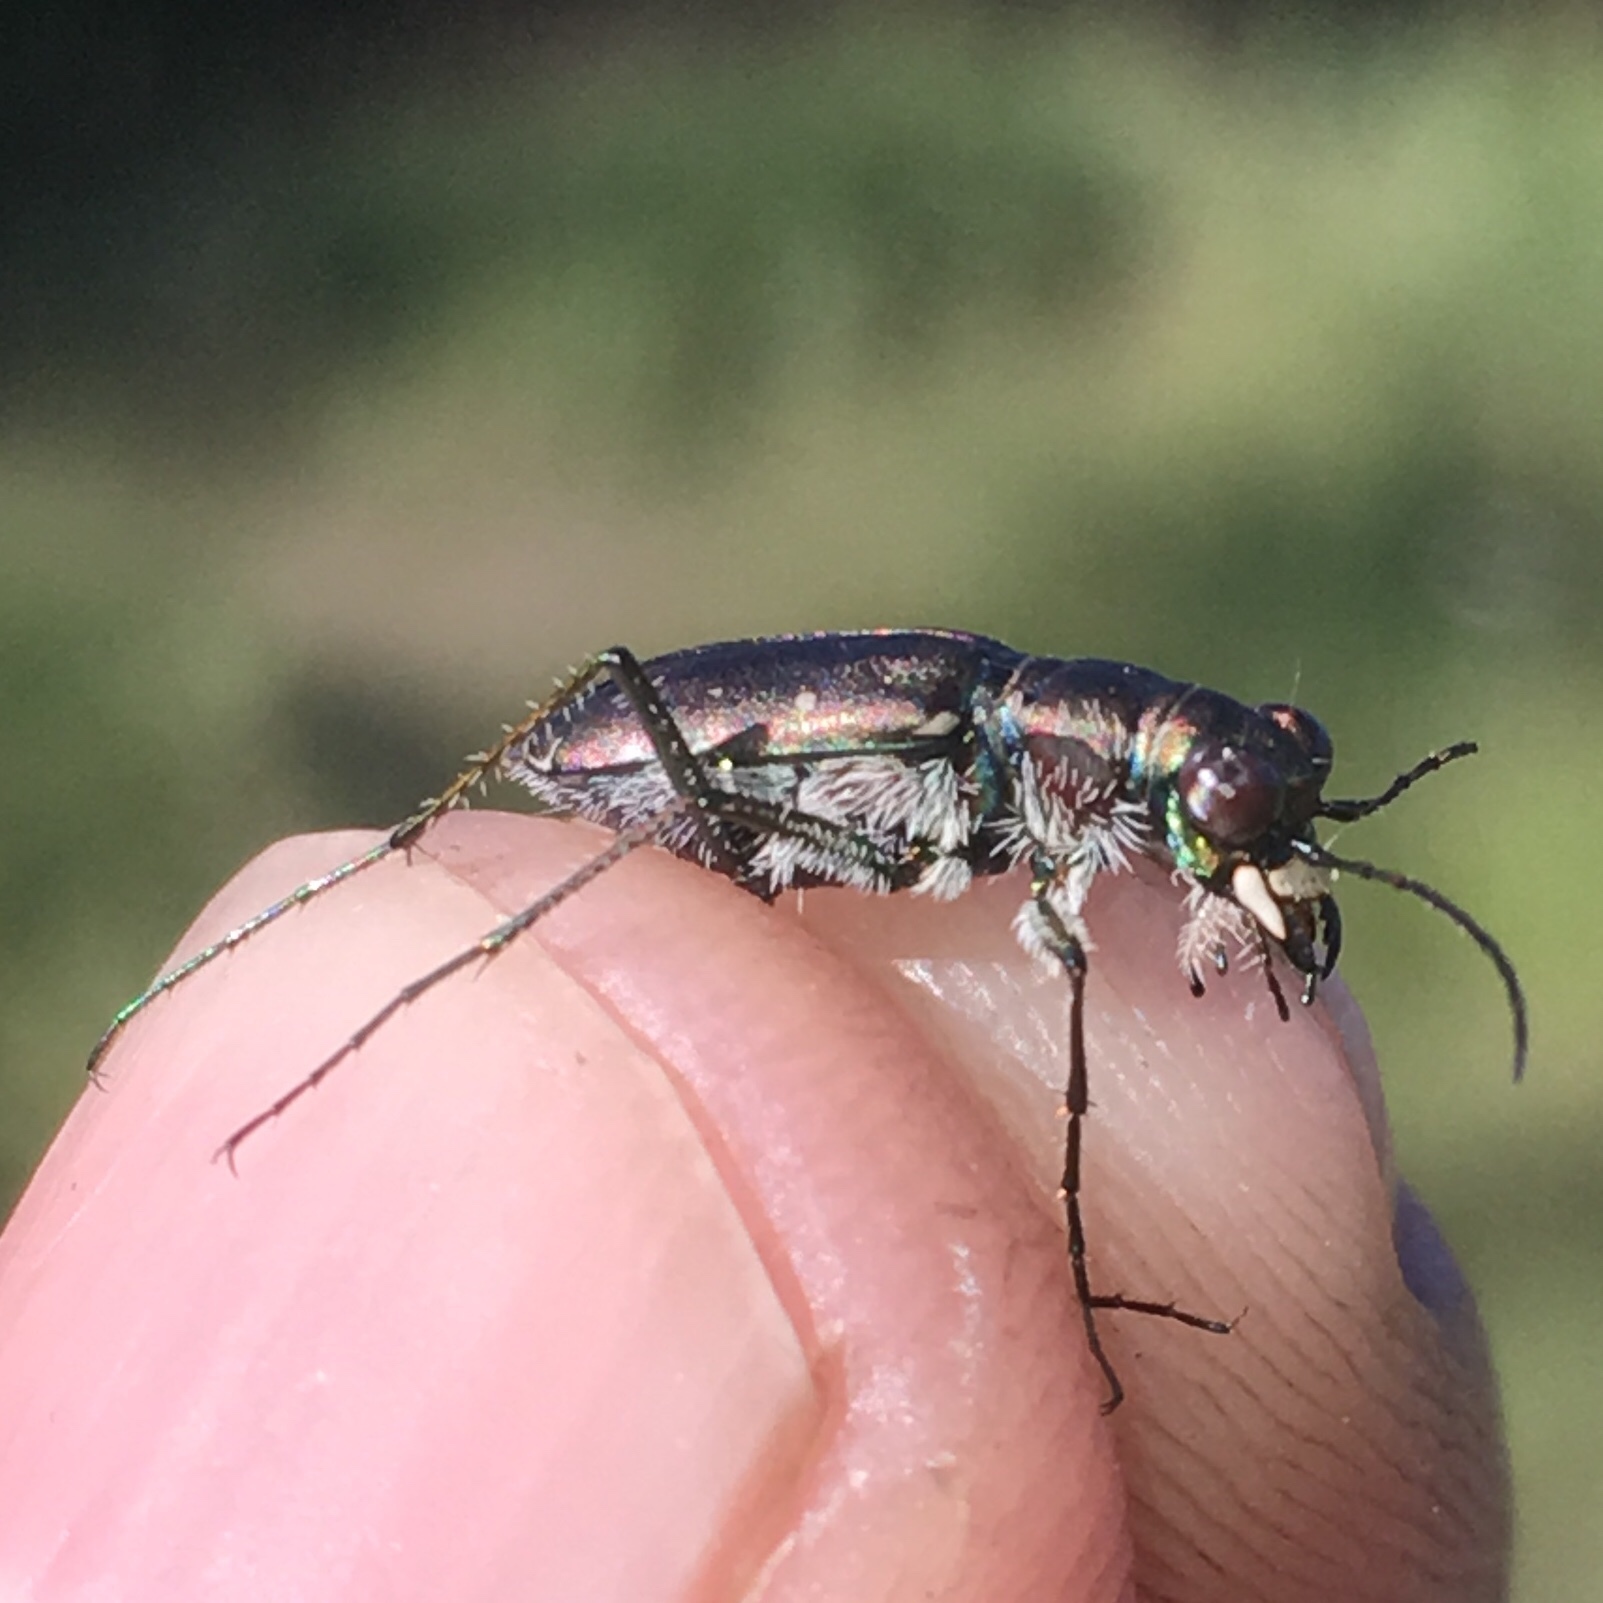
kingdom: Animalia
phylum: Arthropoda
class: Insecta
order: Coleoptera
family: Carabidae
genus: Cicindela
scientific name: Cicindela punctulata
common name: Punctured tiger beetle
